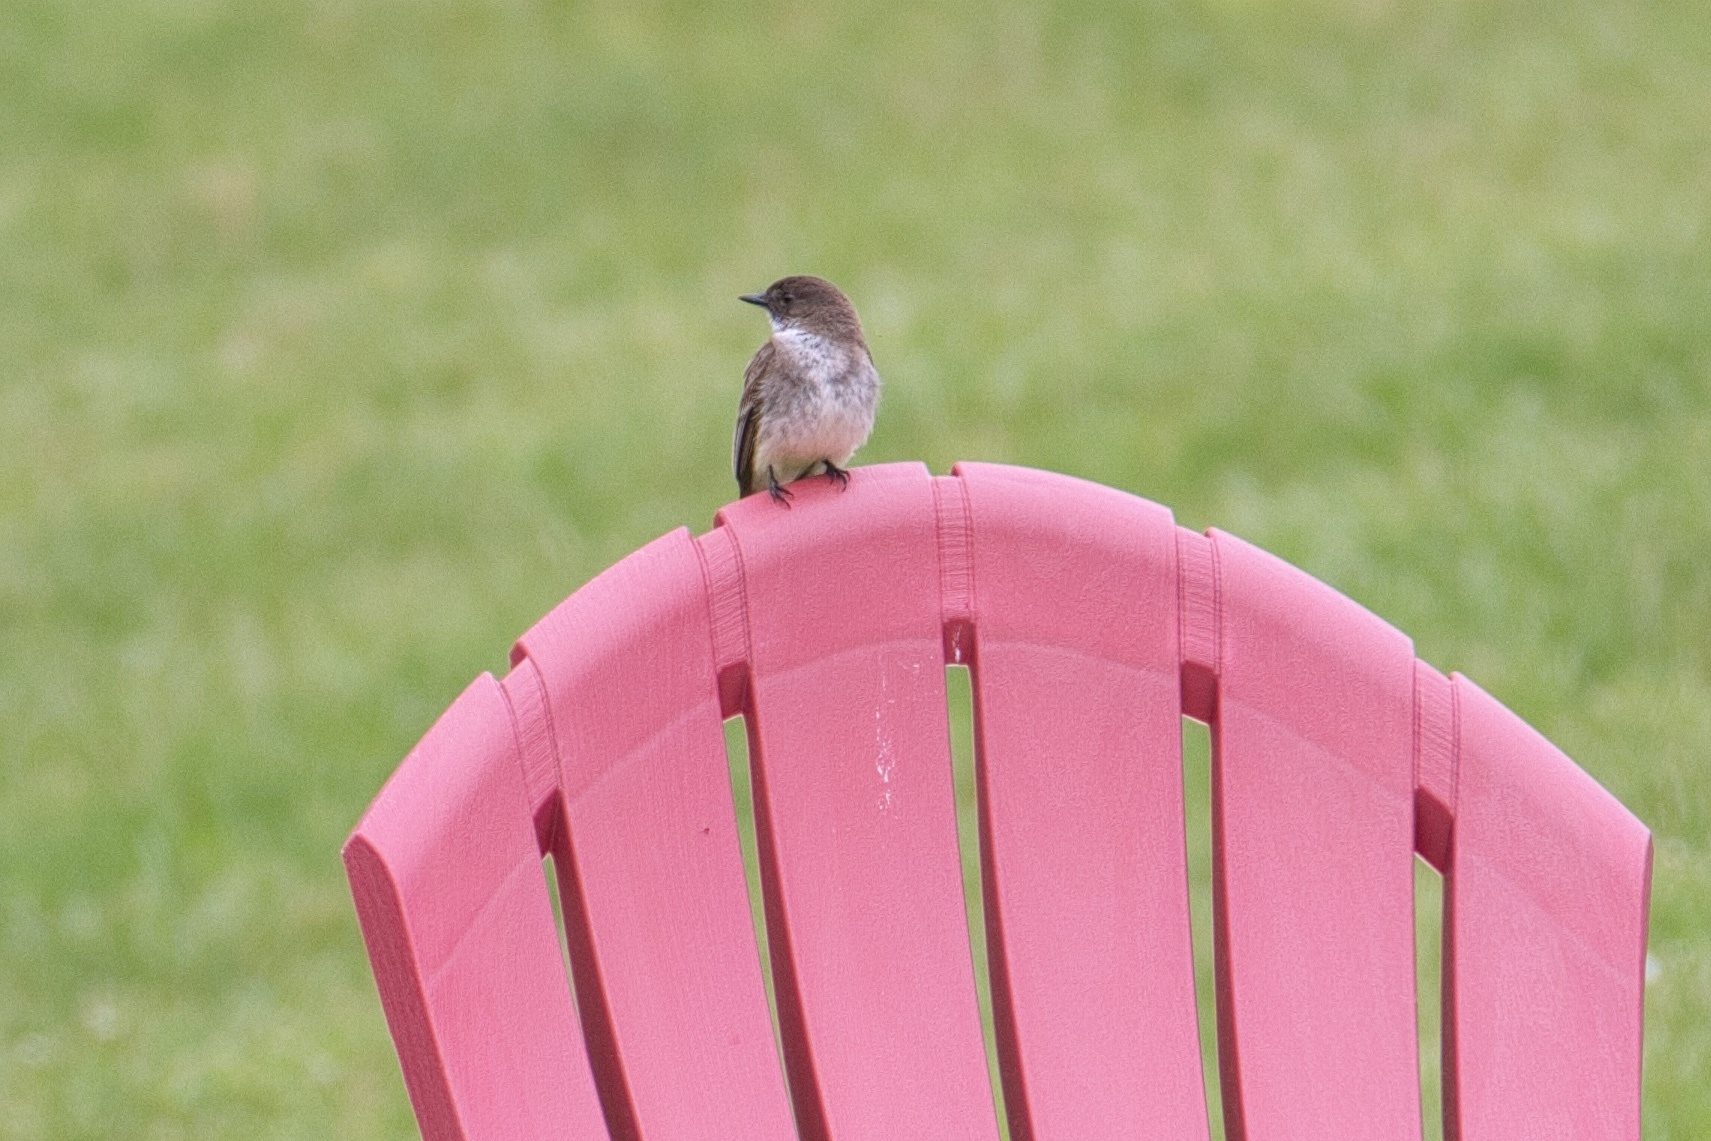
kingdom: Animalia
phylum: Chordata
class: Aves
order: Passeriformes
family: Tyrannidae
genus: Sayornis
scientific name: Sayornis phoebe
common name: Eastern phoebe
